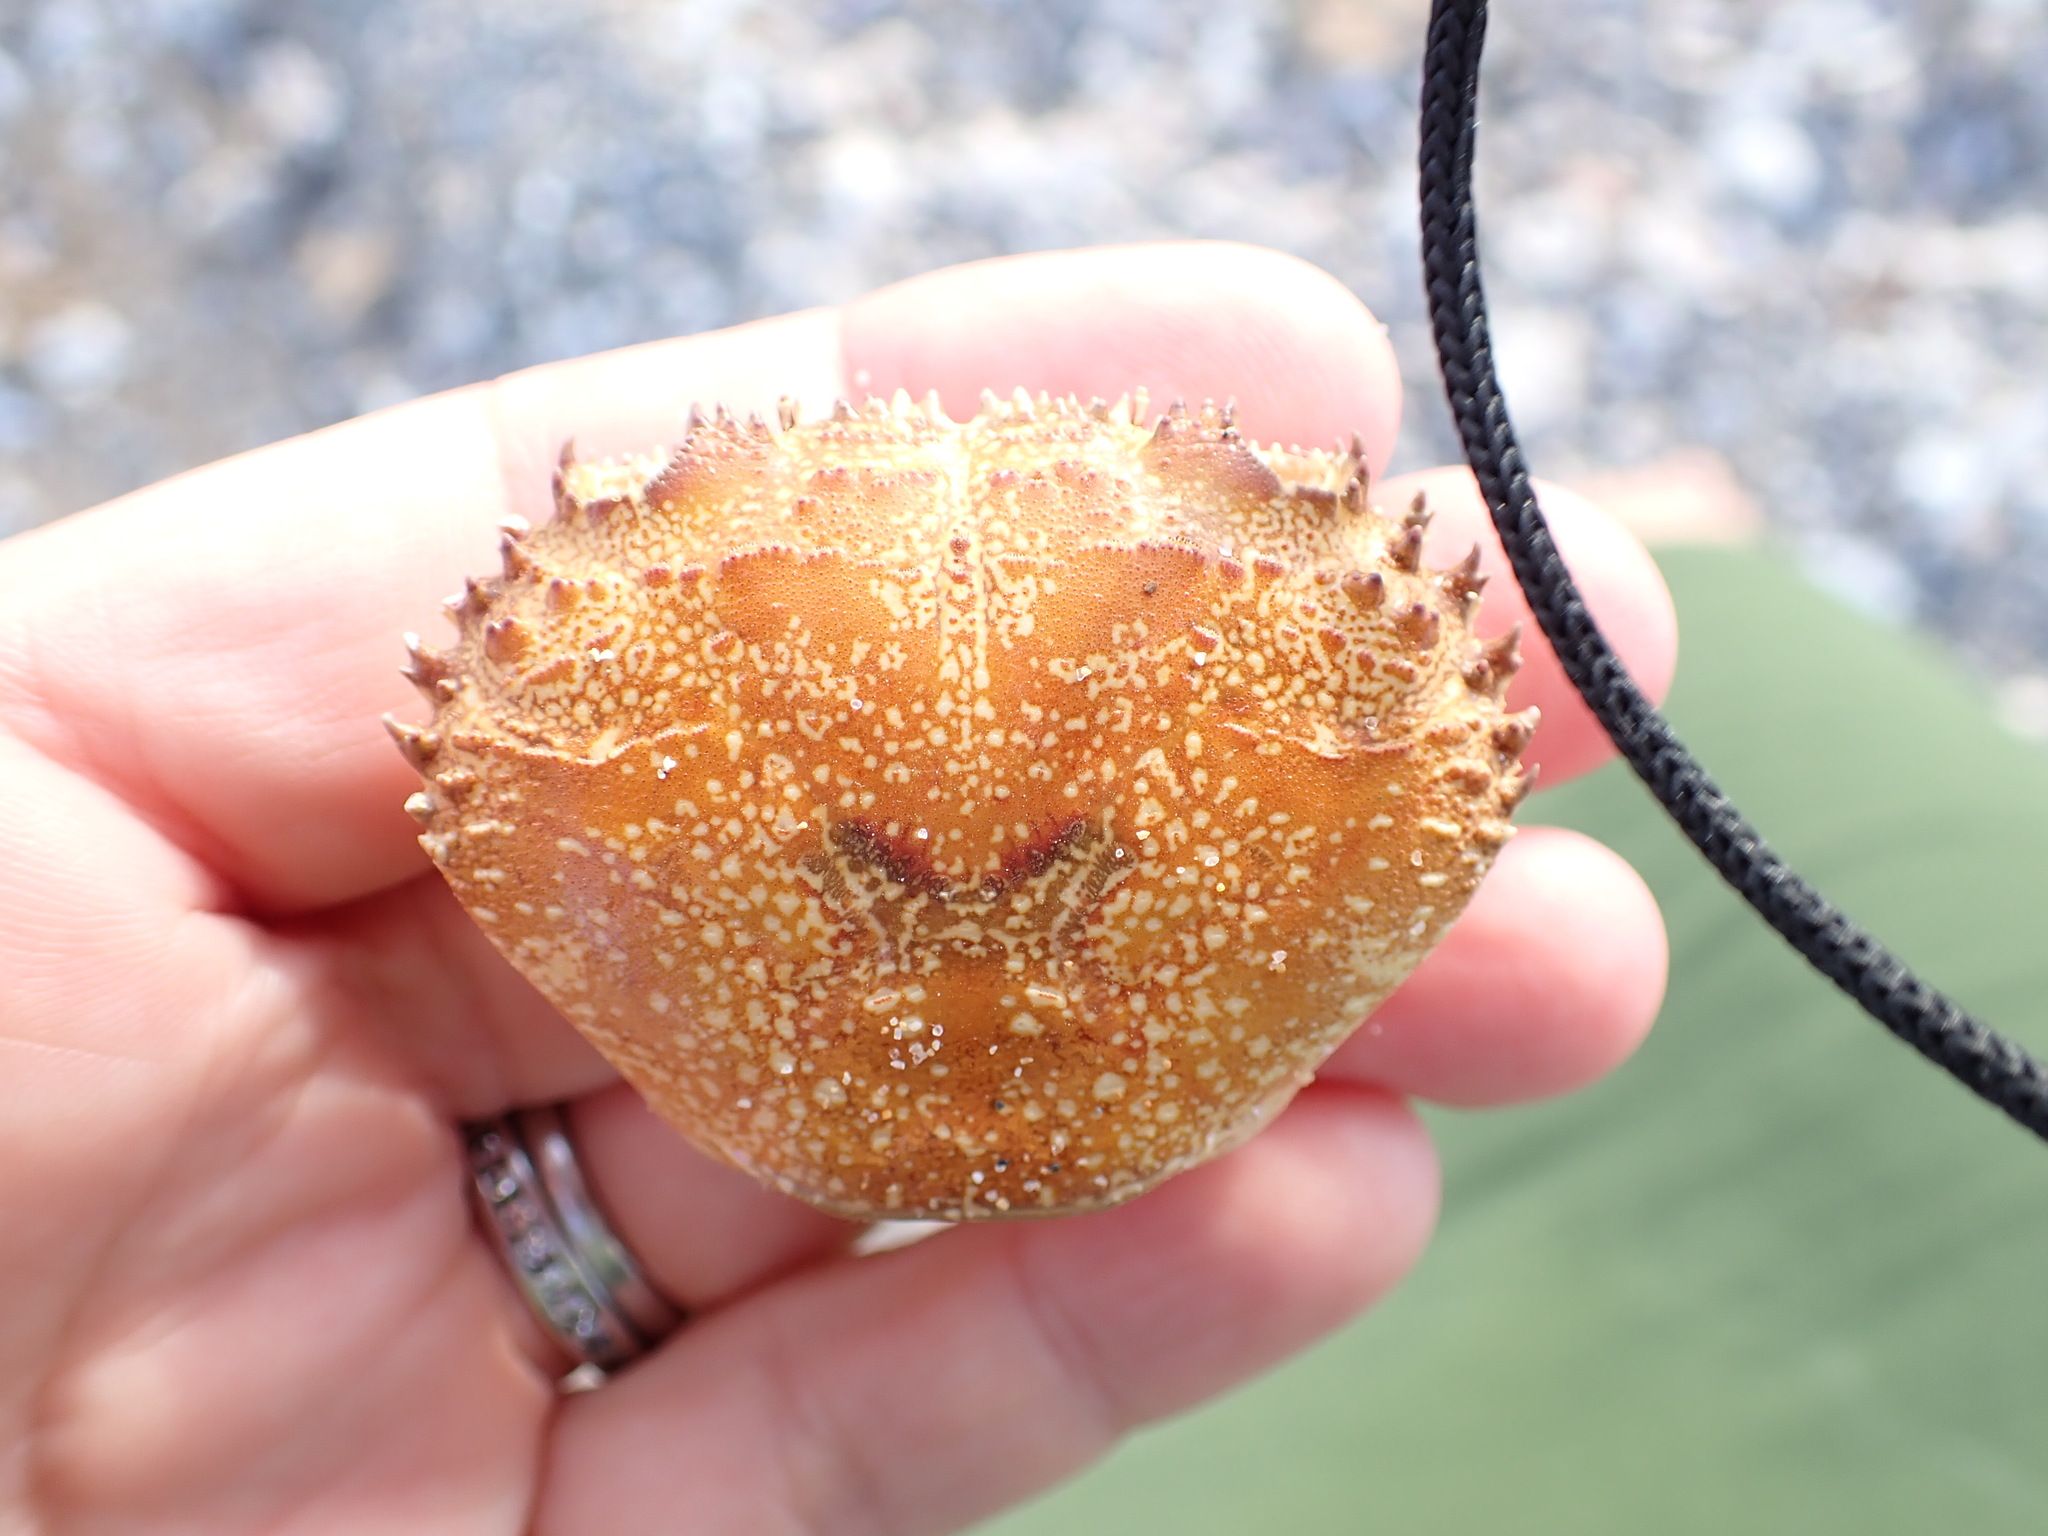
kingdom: Animalia
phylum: Arthropoda
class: Malacostraca
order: Decapoda
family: Eriphiidae
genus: Eriphia
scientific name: Eriphia verrucosa
